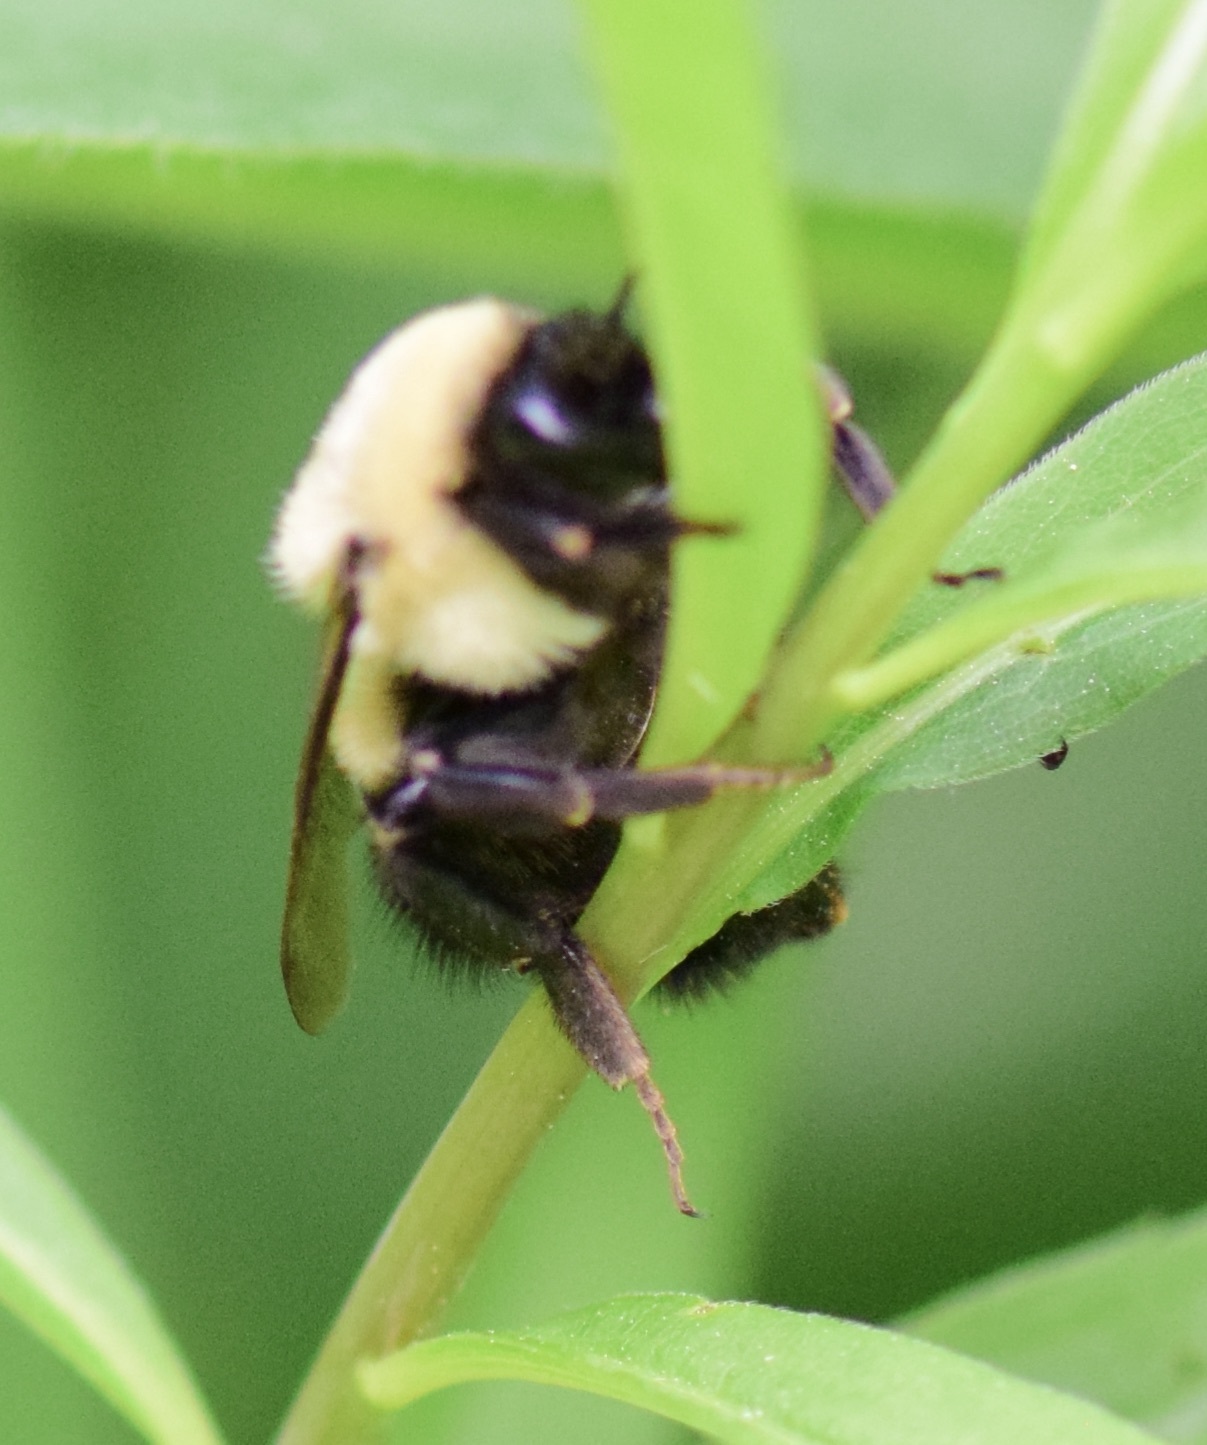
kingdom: Animalia
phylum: Arthropoda
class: Insecta
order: Hymenoptera
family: Apidae
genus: Bombus
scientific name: Bombus impatiens
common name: Common eastern bumble bee
